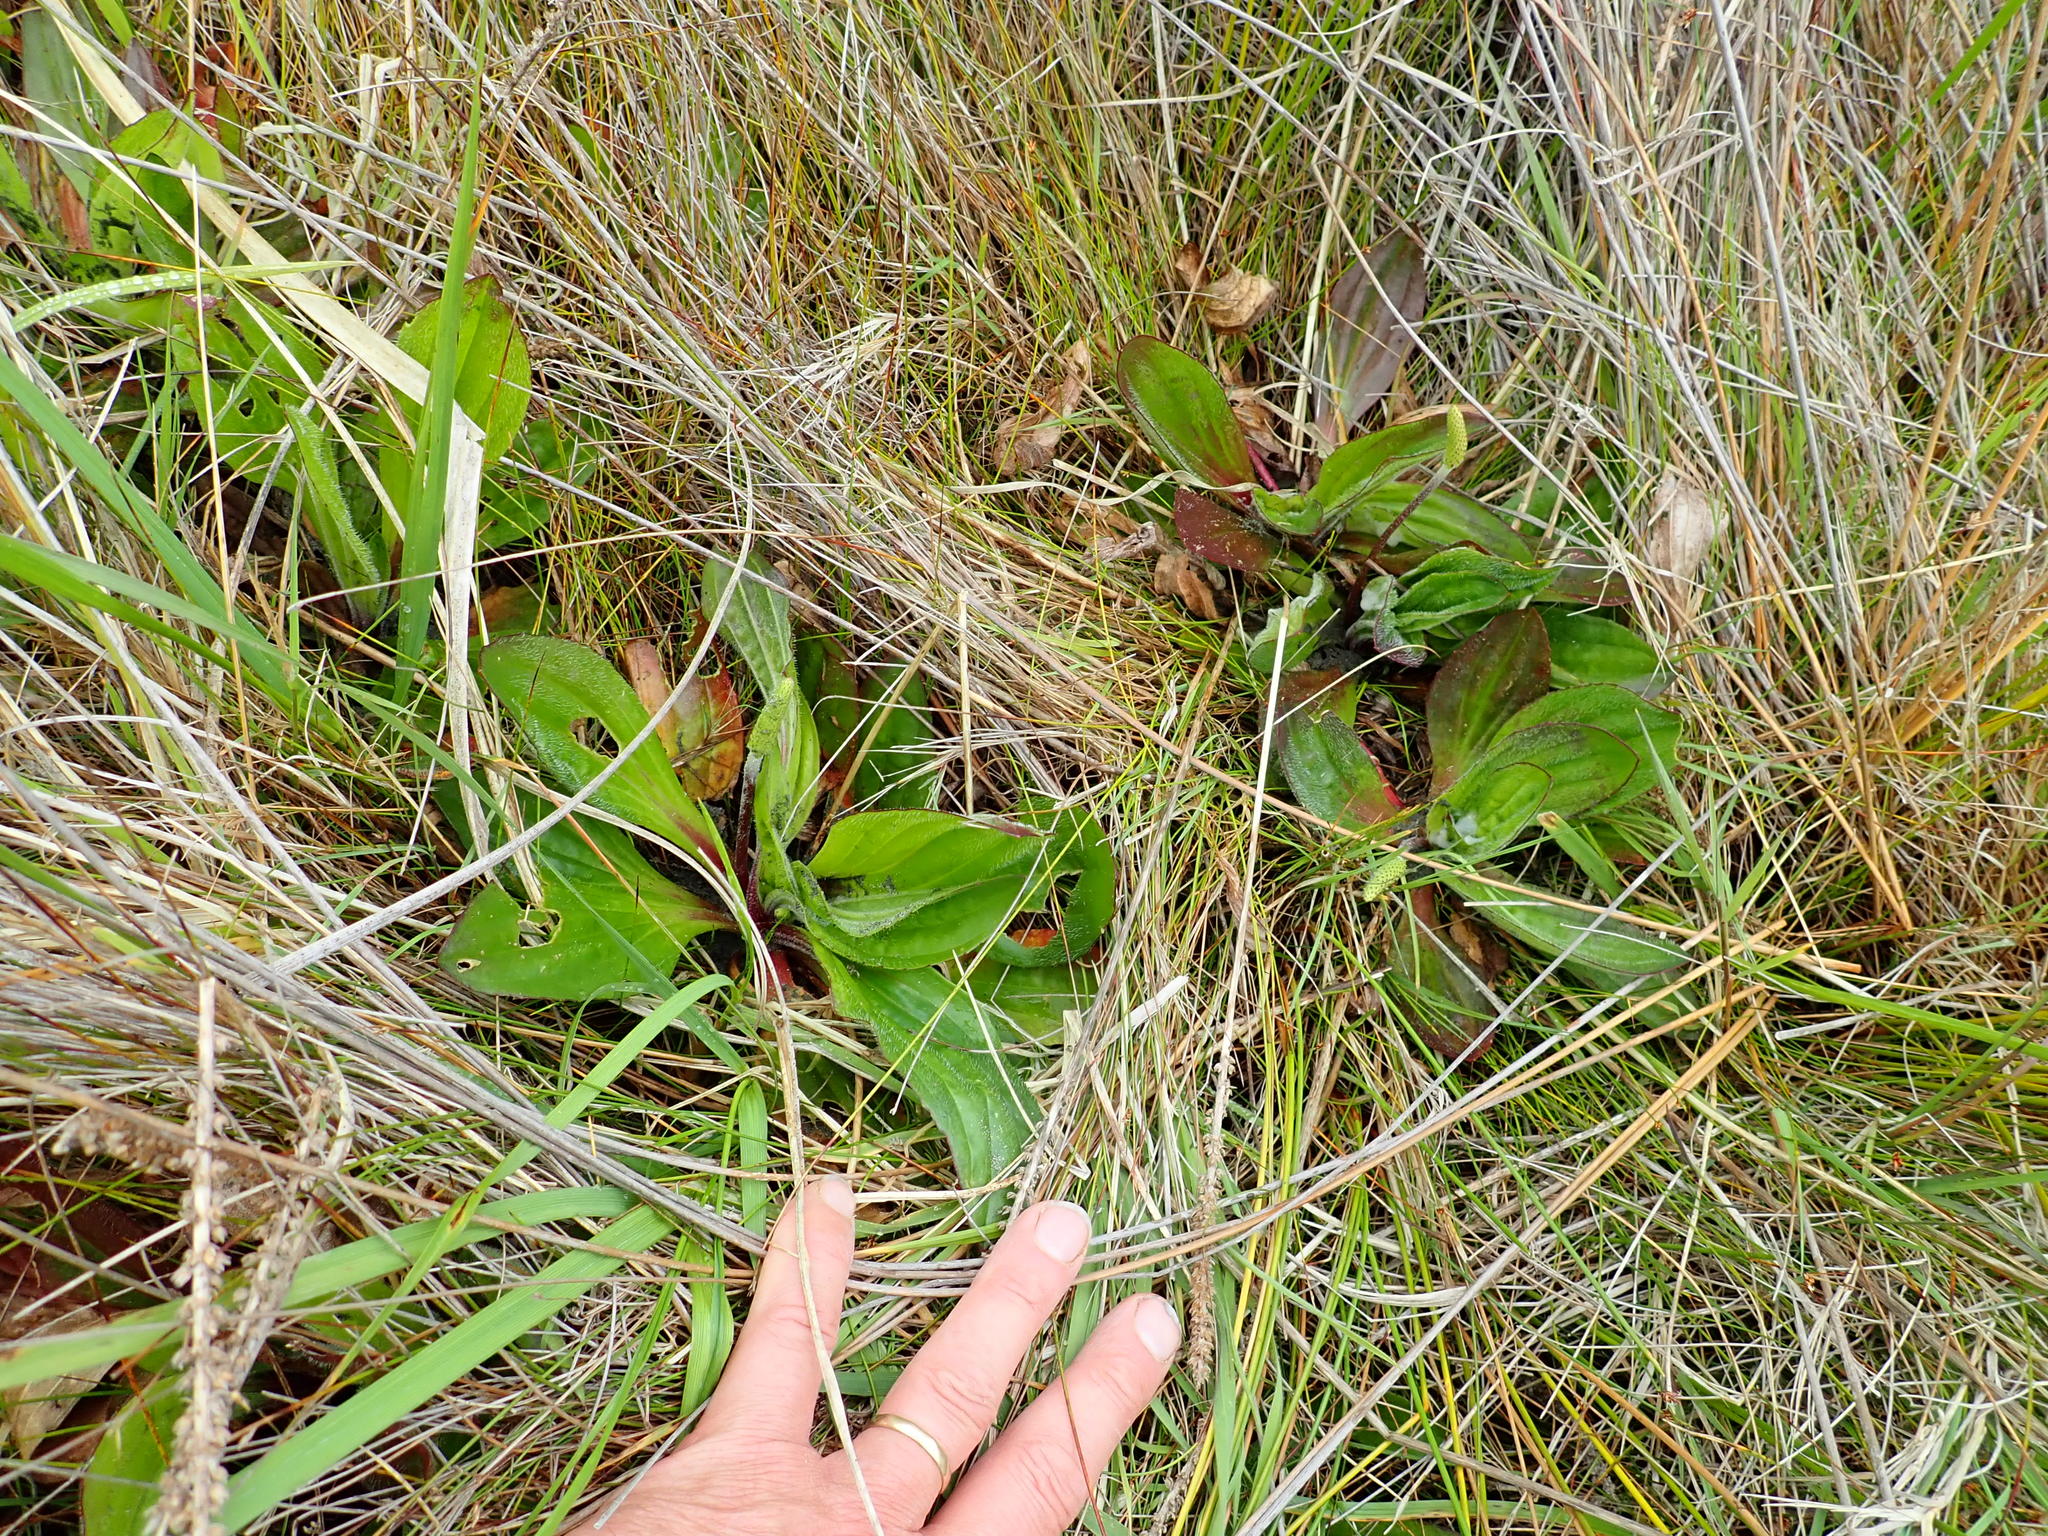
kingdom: Plantae
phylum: Tracheophyta
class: Magnoliopsida
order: Lamiales
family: Plantaginaceae
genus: Plantago
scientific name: Plantago australis
